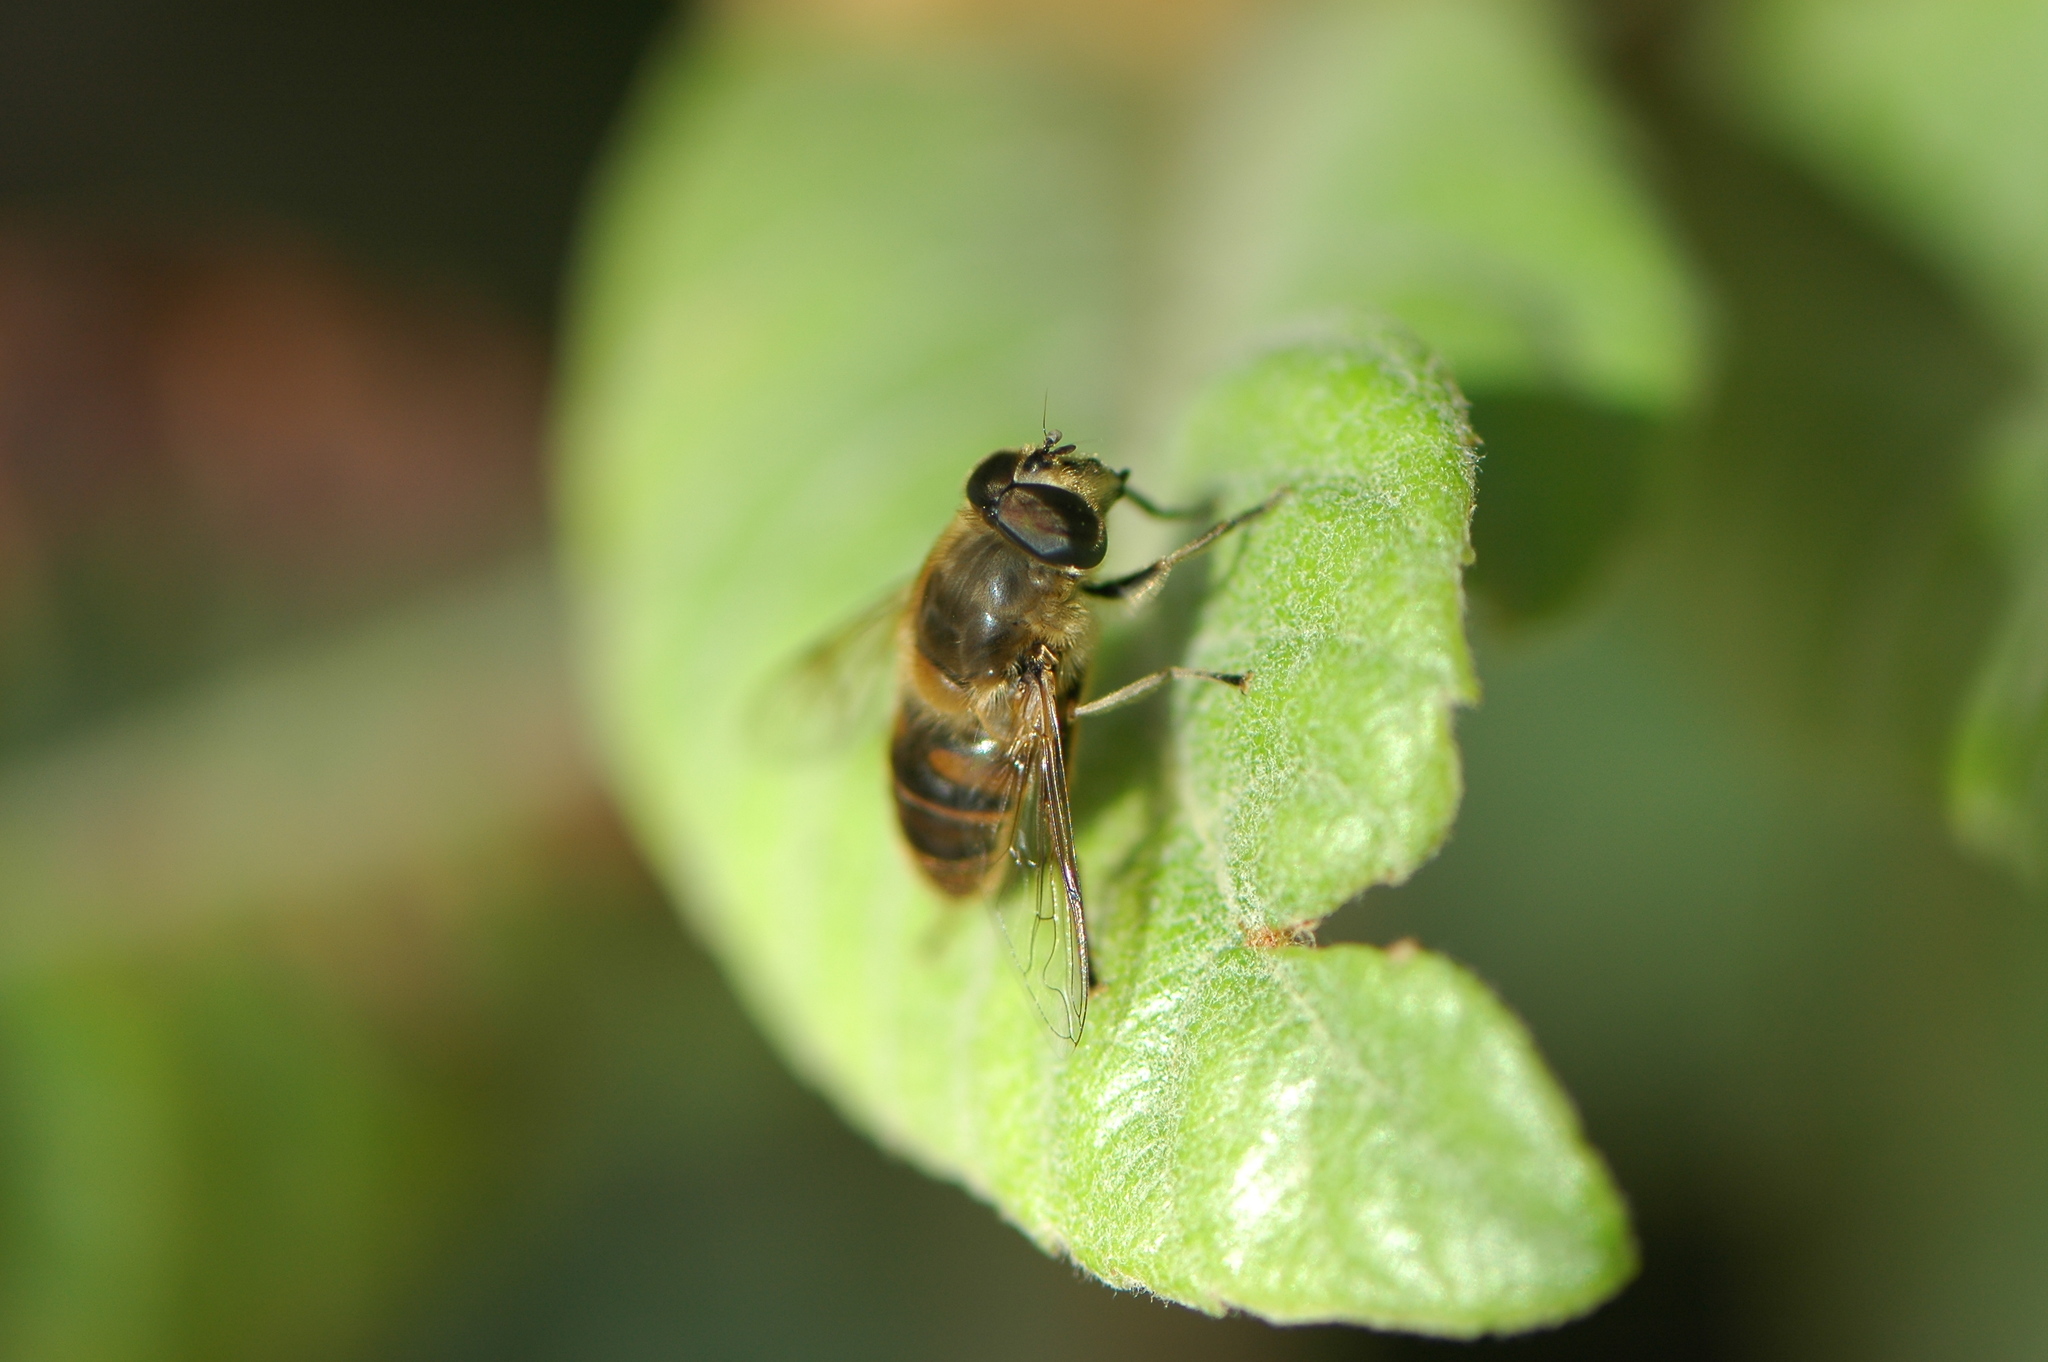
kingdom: Animalia
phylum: Arthropoda
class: Insecta
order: Diptera
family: Syrphidae
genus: Eristalis
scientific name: Eristalis tenax
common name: Drone fly
